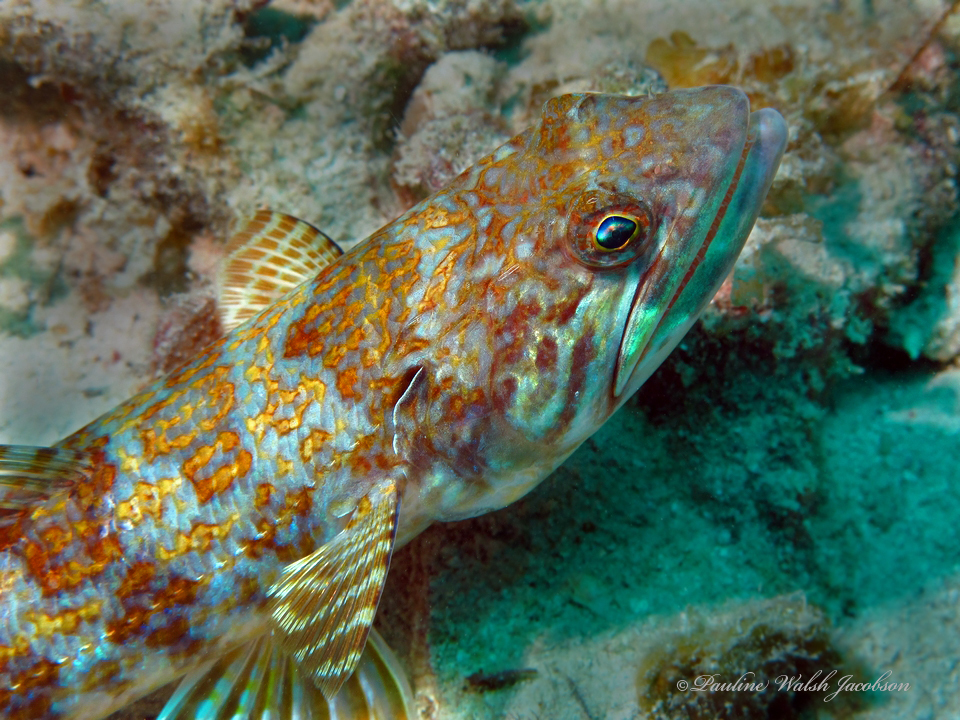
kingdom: Animalia
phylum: Chordata
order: Aulopiformes
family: Synodontidae
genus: Synodus
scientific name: Synodus intermedius
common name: Sand diver
